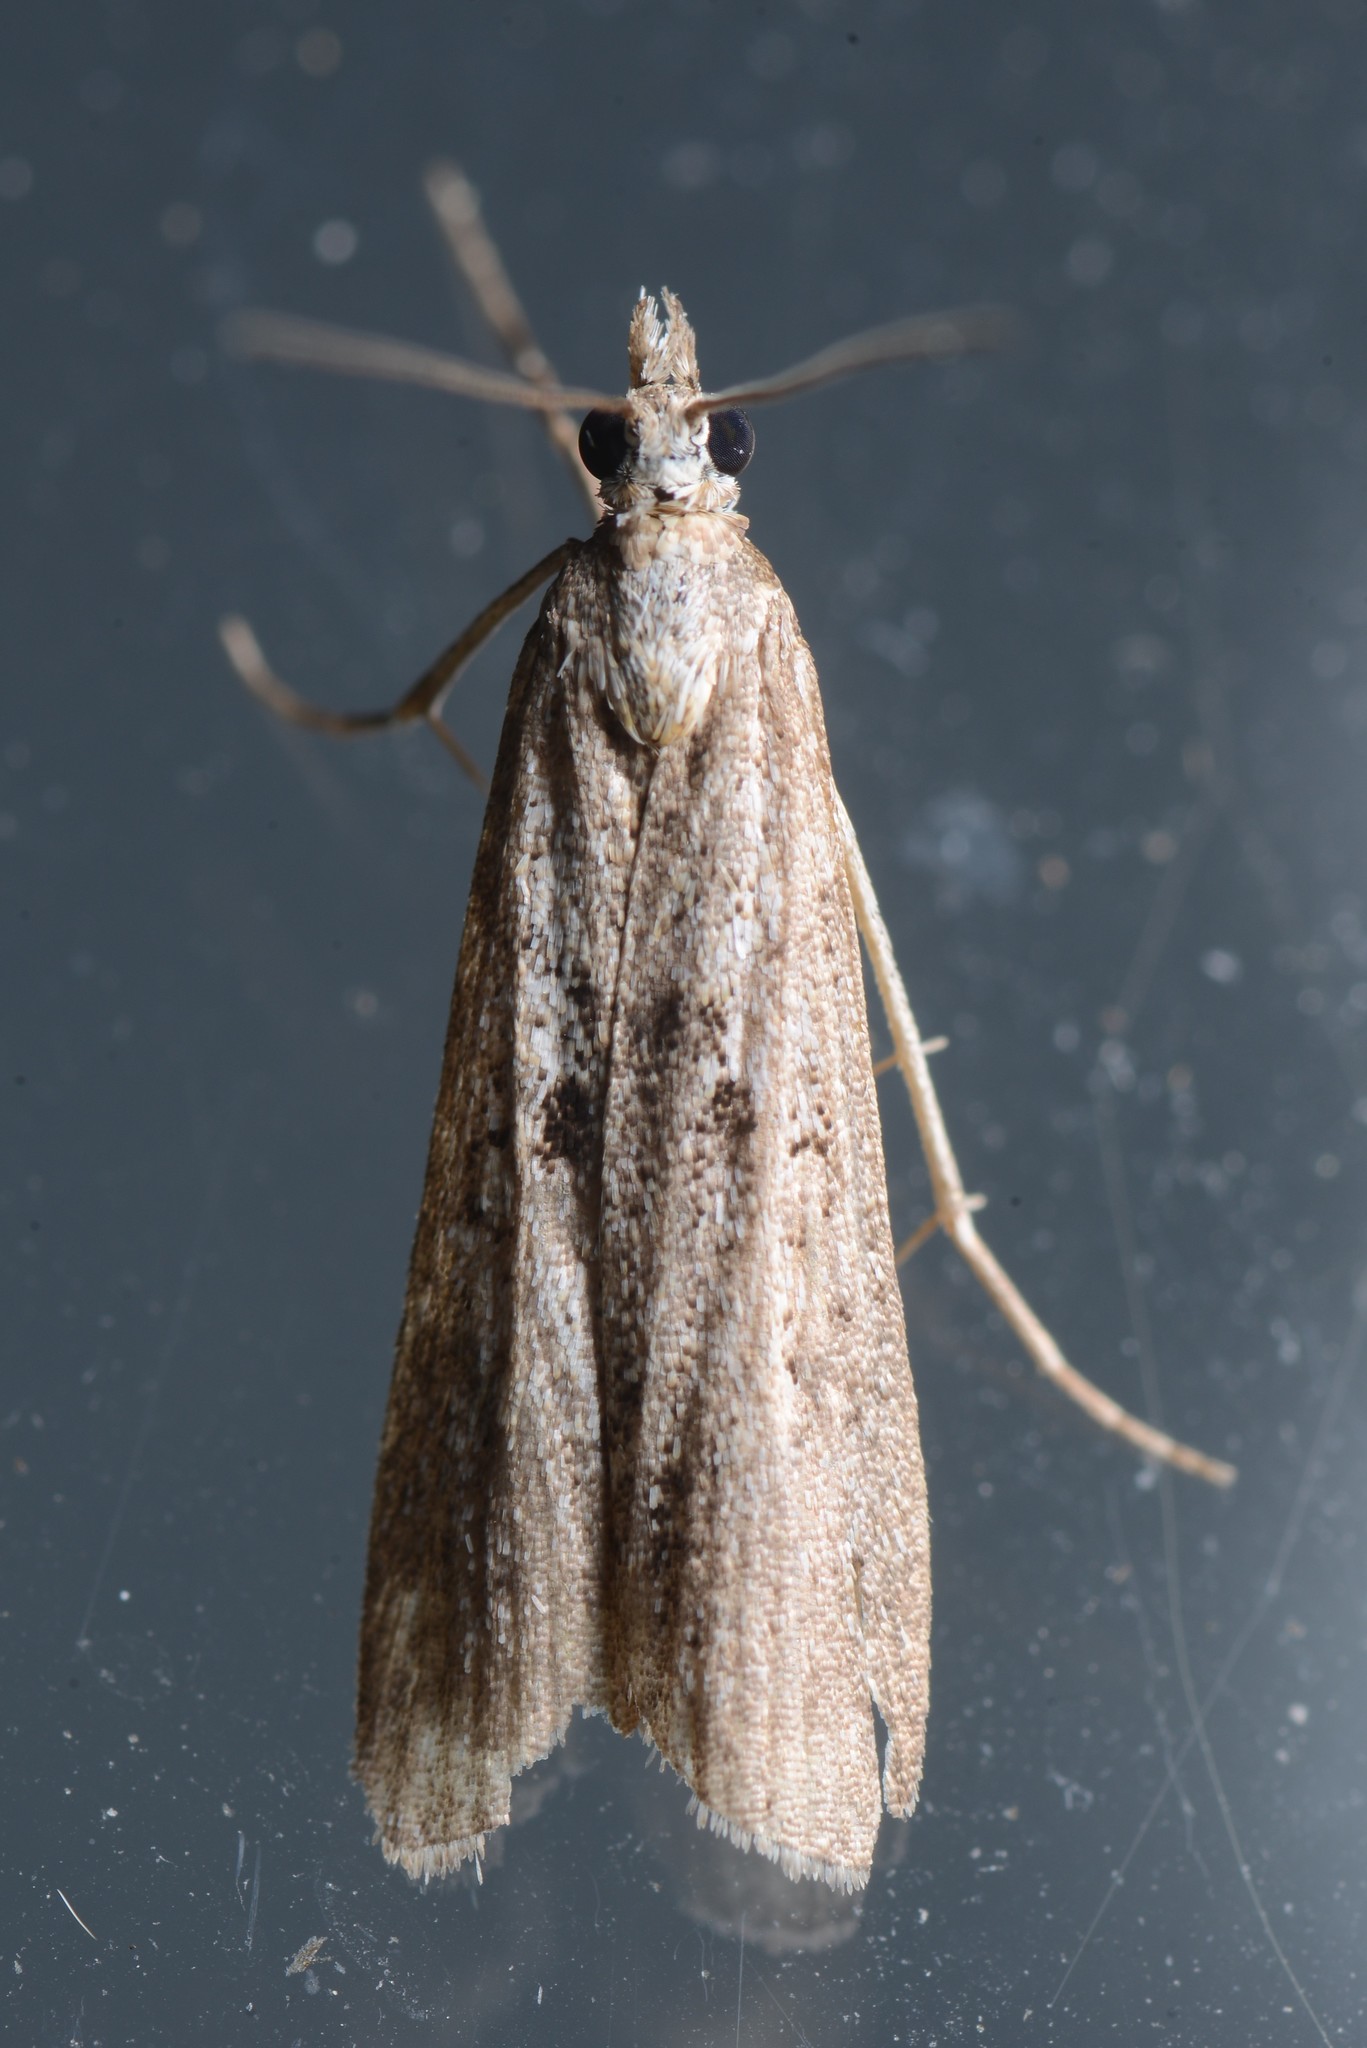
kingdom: Animalia
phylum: Arthropoda
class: Insecta
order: Lepidoptera
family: Crambidae
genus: Eudonia
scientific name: Eudonia leptalea
